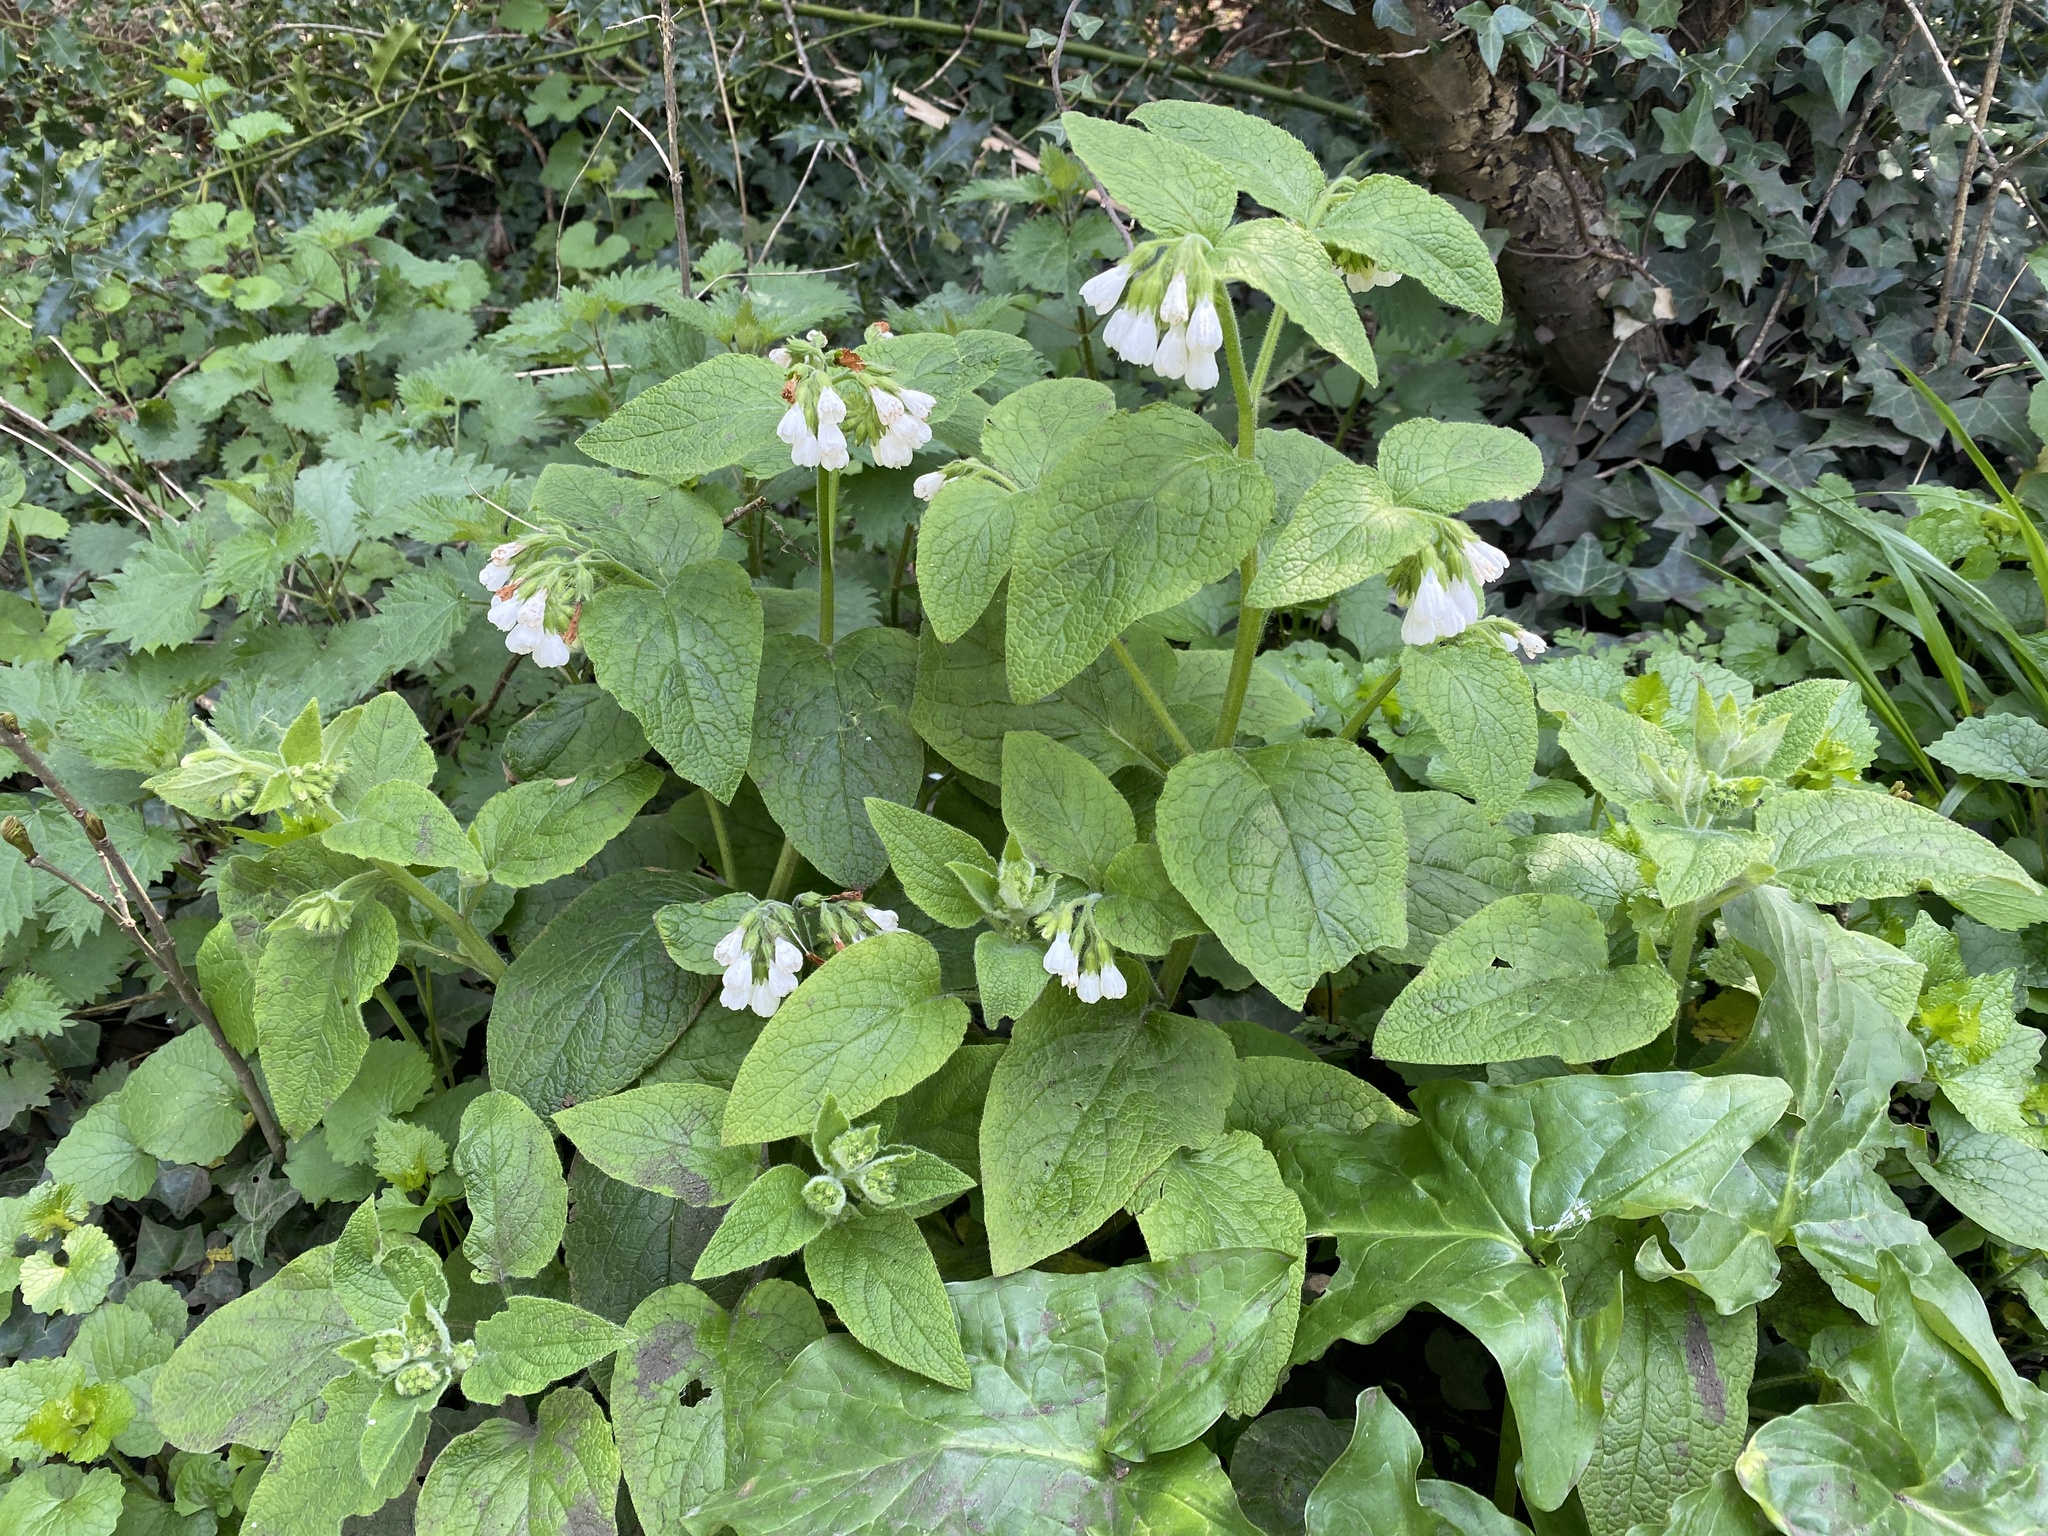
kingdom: Plantae
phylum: Tracheophyta
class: Magnoliopsida
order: Boraginales
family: Boraginaceae
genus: Symphytum
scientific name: Symphytum orientale
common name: White comfrey
